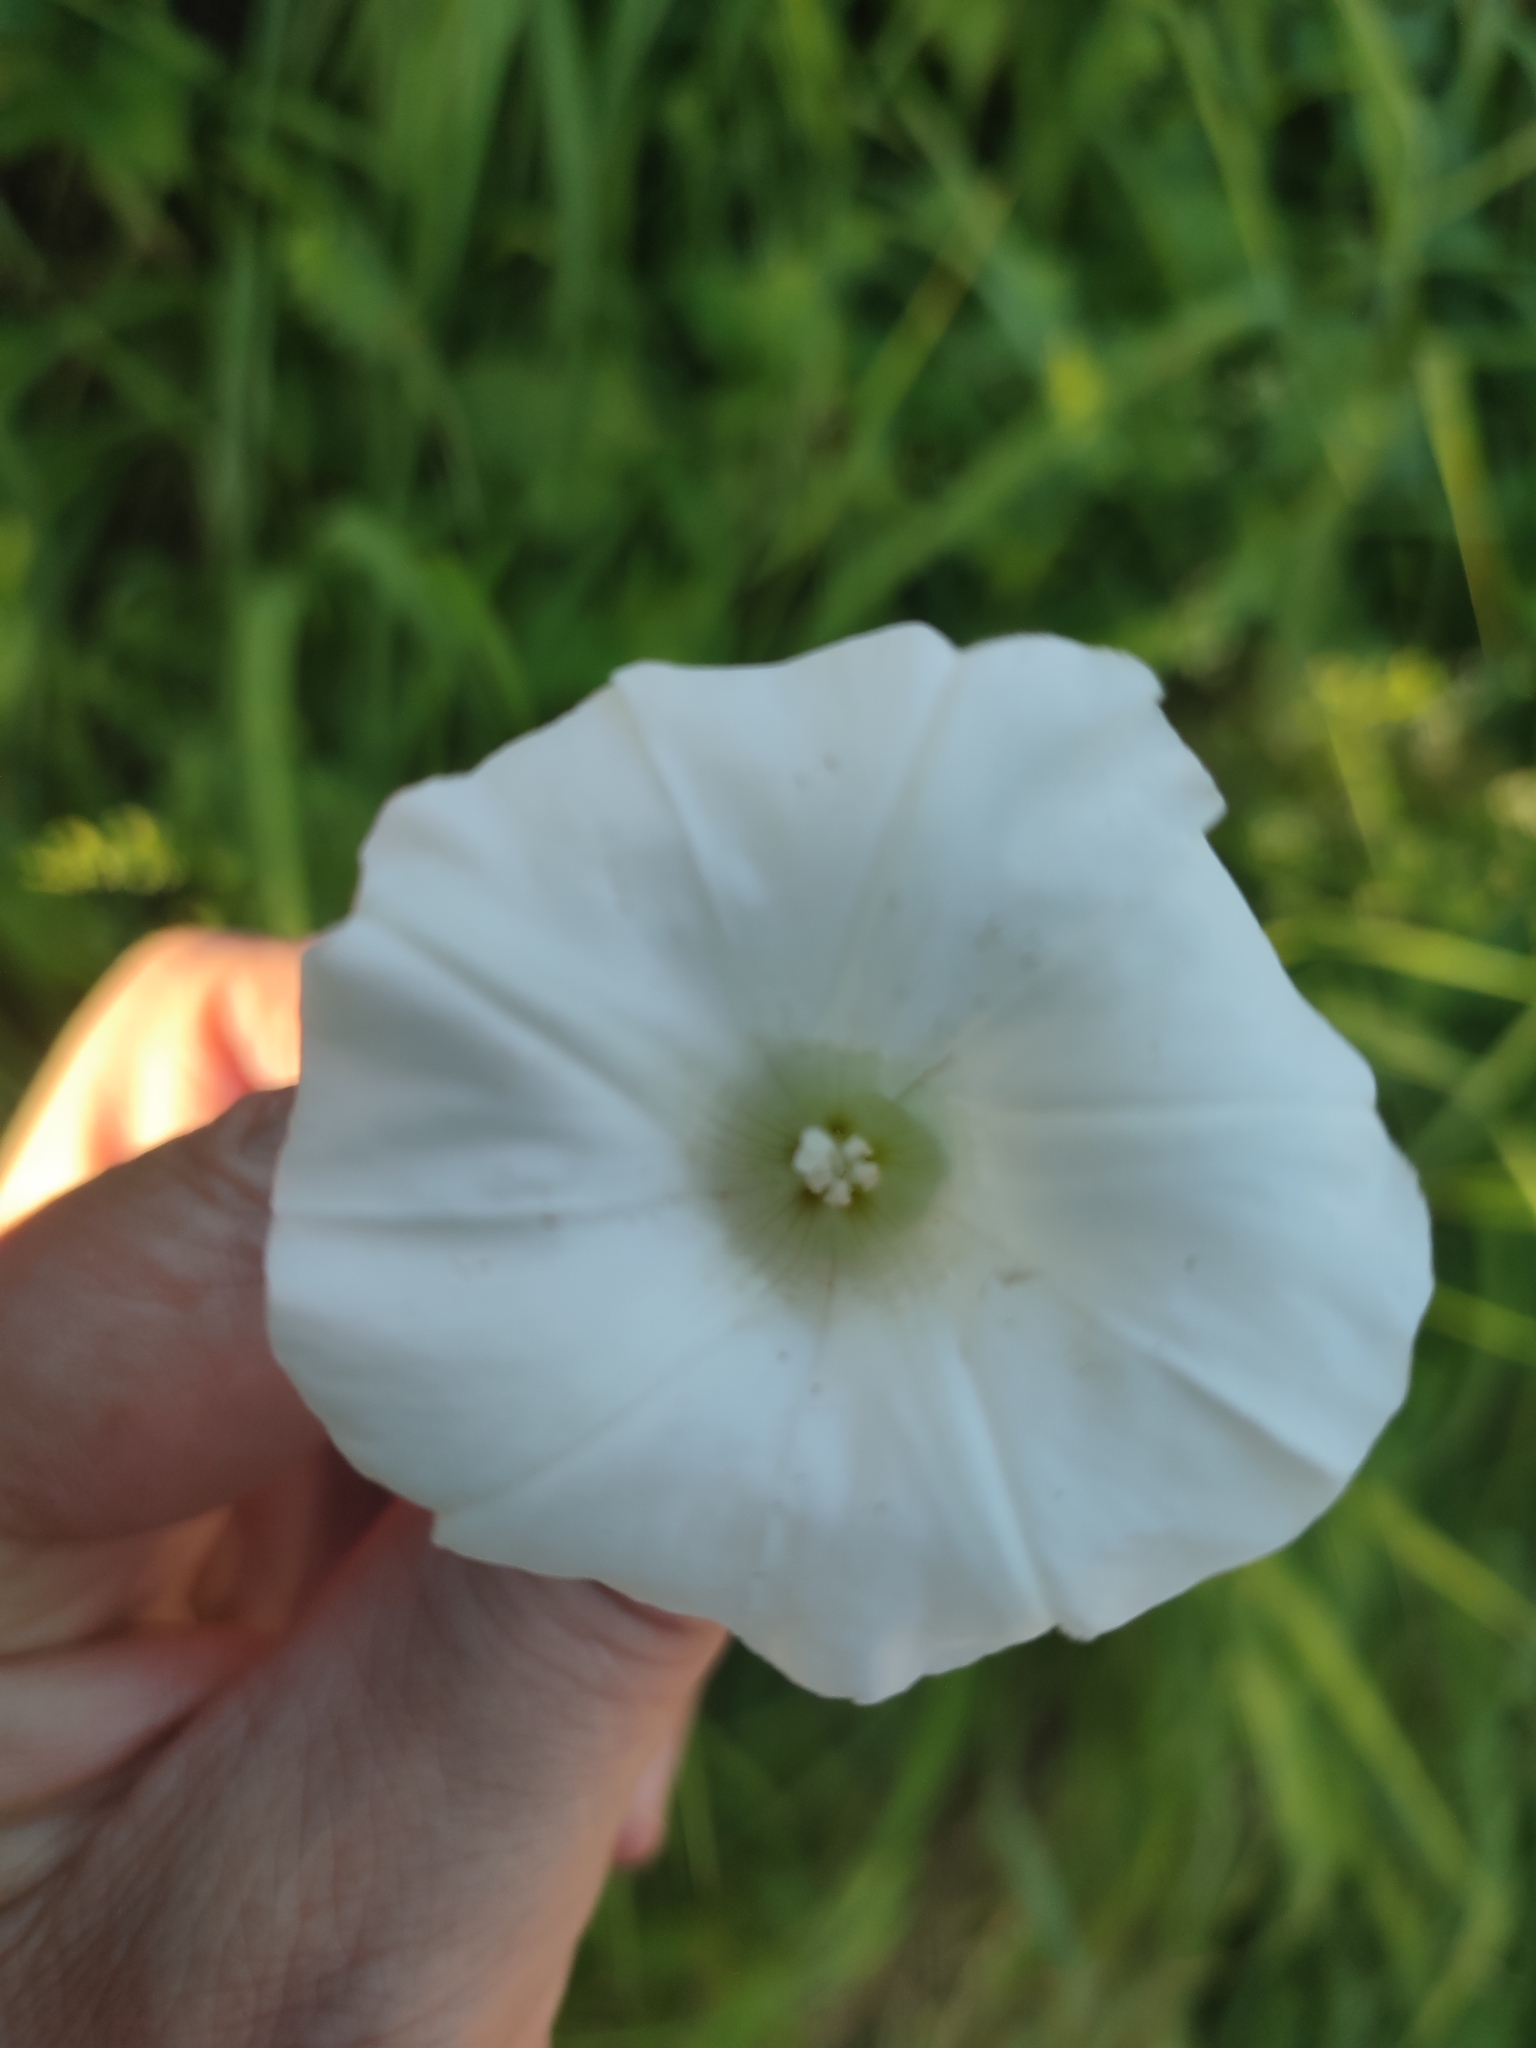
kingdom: Plantae
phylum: Tracheophyta
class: Magnoliopsida
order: Solanales
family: Convolvulaceae
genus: Calystegia
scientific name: Calystegia sepium
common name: Hedge bindweed
